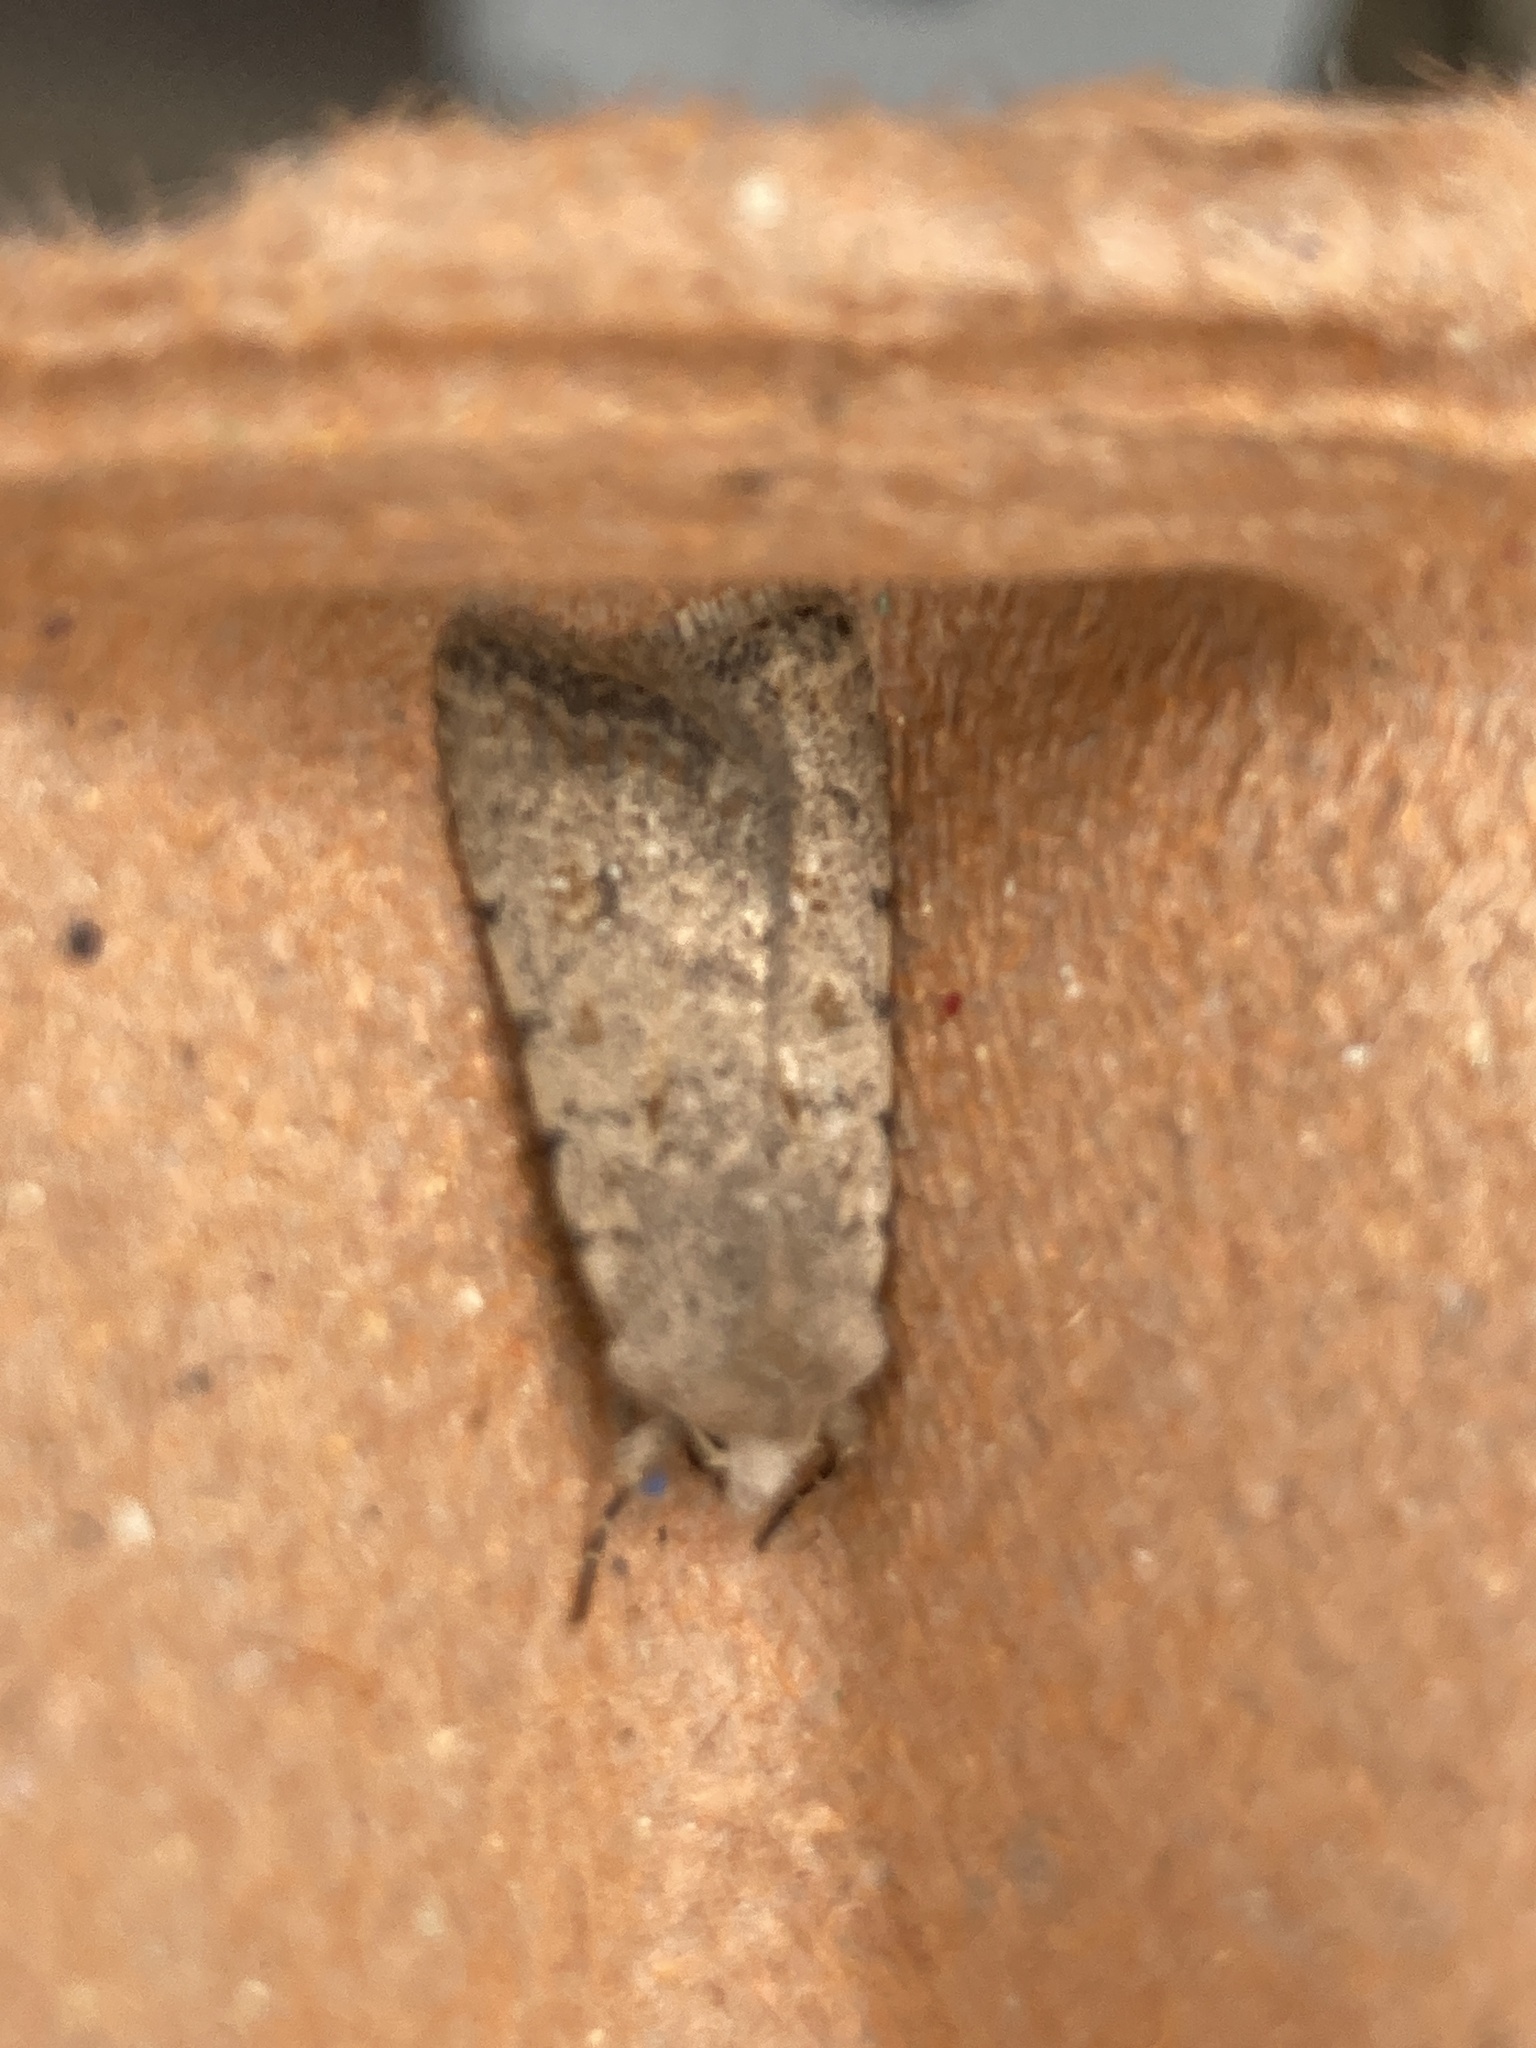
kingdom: Animalia
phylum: Arthropoda
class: Insecta
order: Lepidoptera
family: Noctuidae
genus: Caradrina
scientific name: Caradrina clavipalpis
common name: Pale mottled willow
